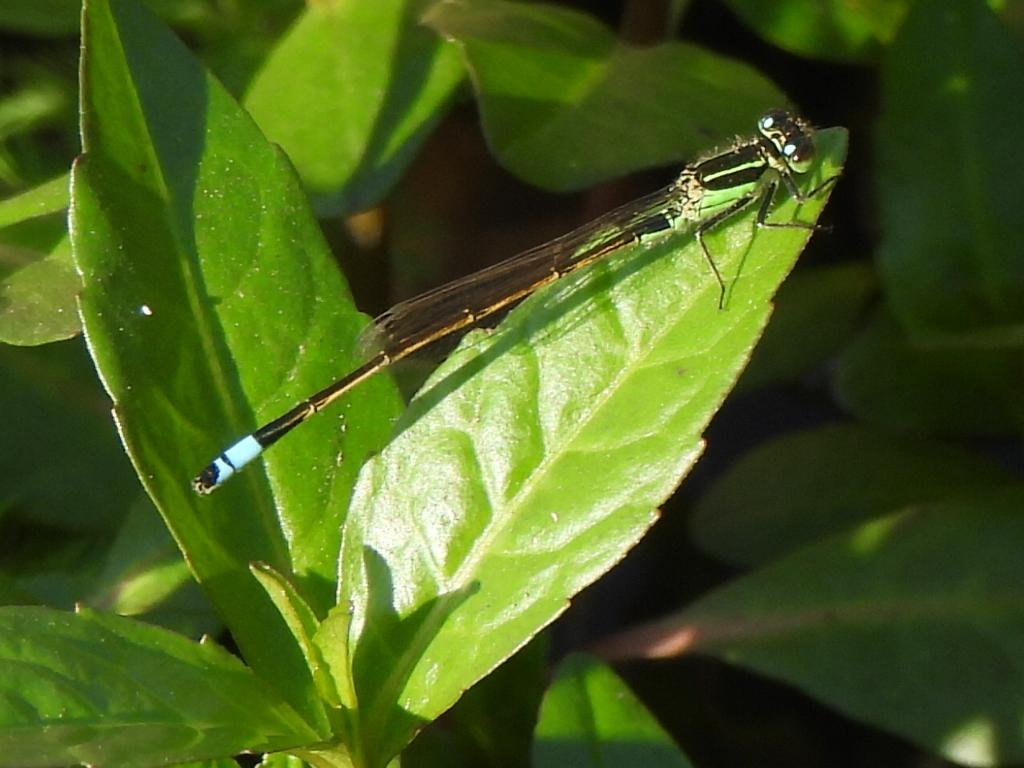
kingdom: Animalia
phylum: Arthropoda
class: Insecta
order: Odonata
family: Coenagrionidae
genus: Ischnura
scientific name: Ischnura ramburii
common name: Rambur's forktail
